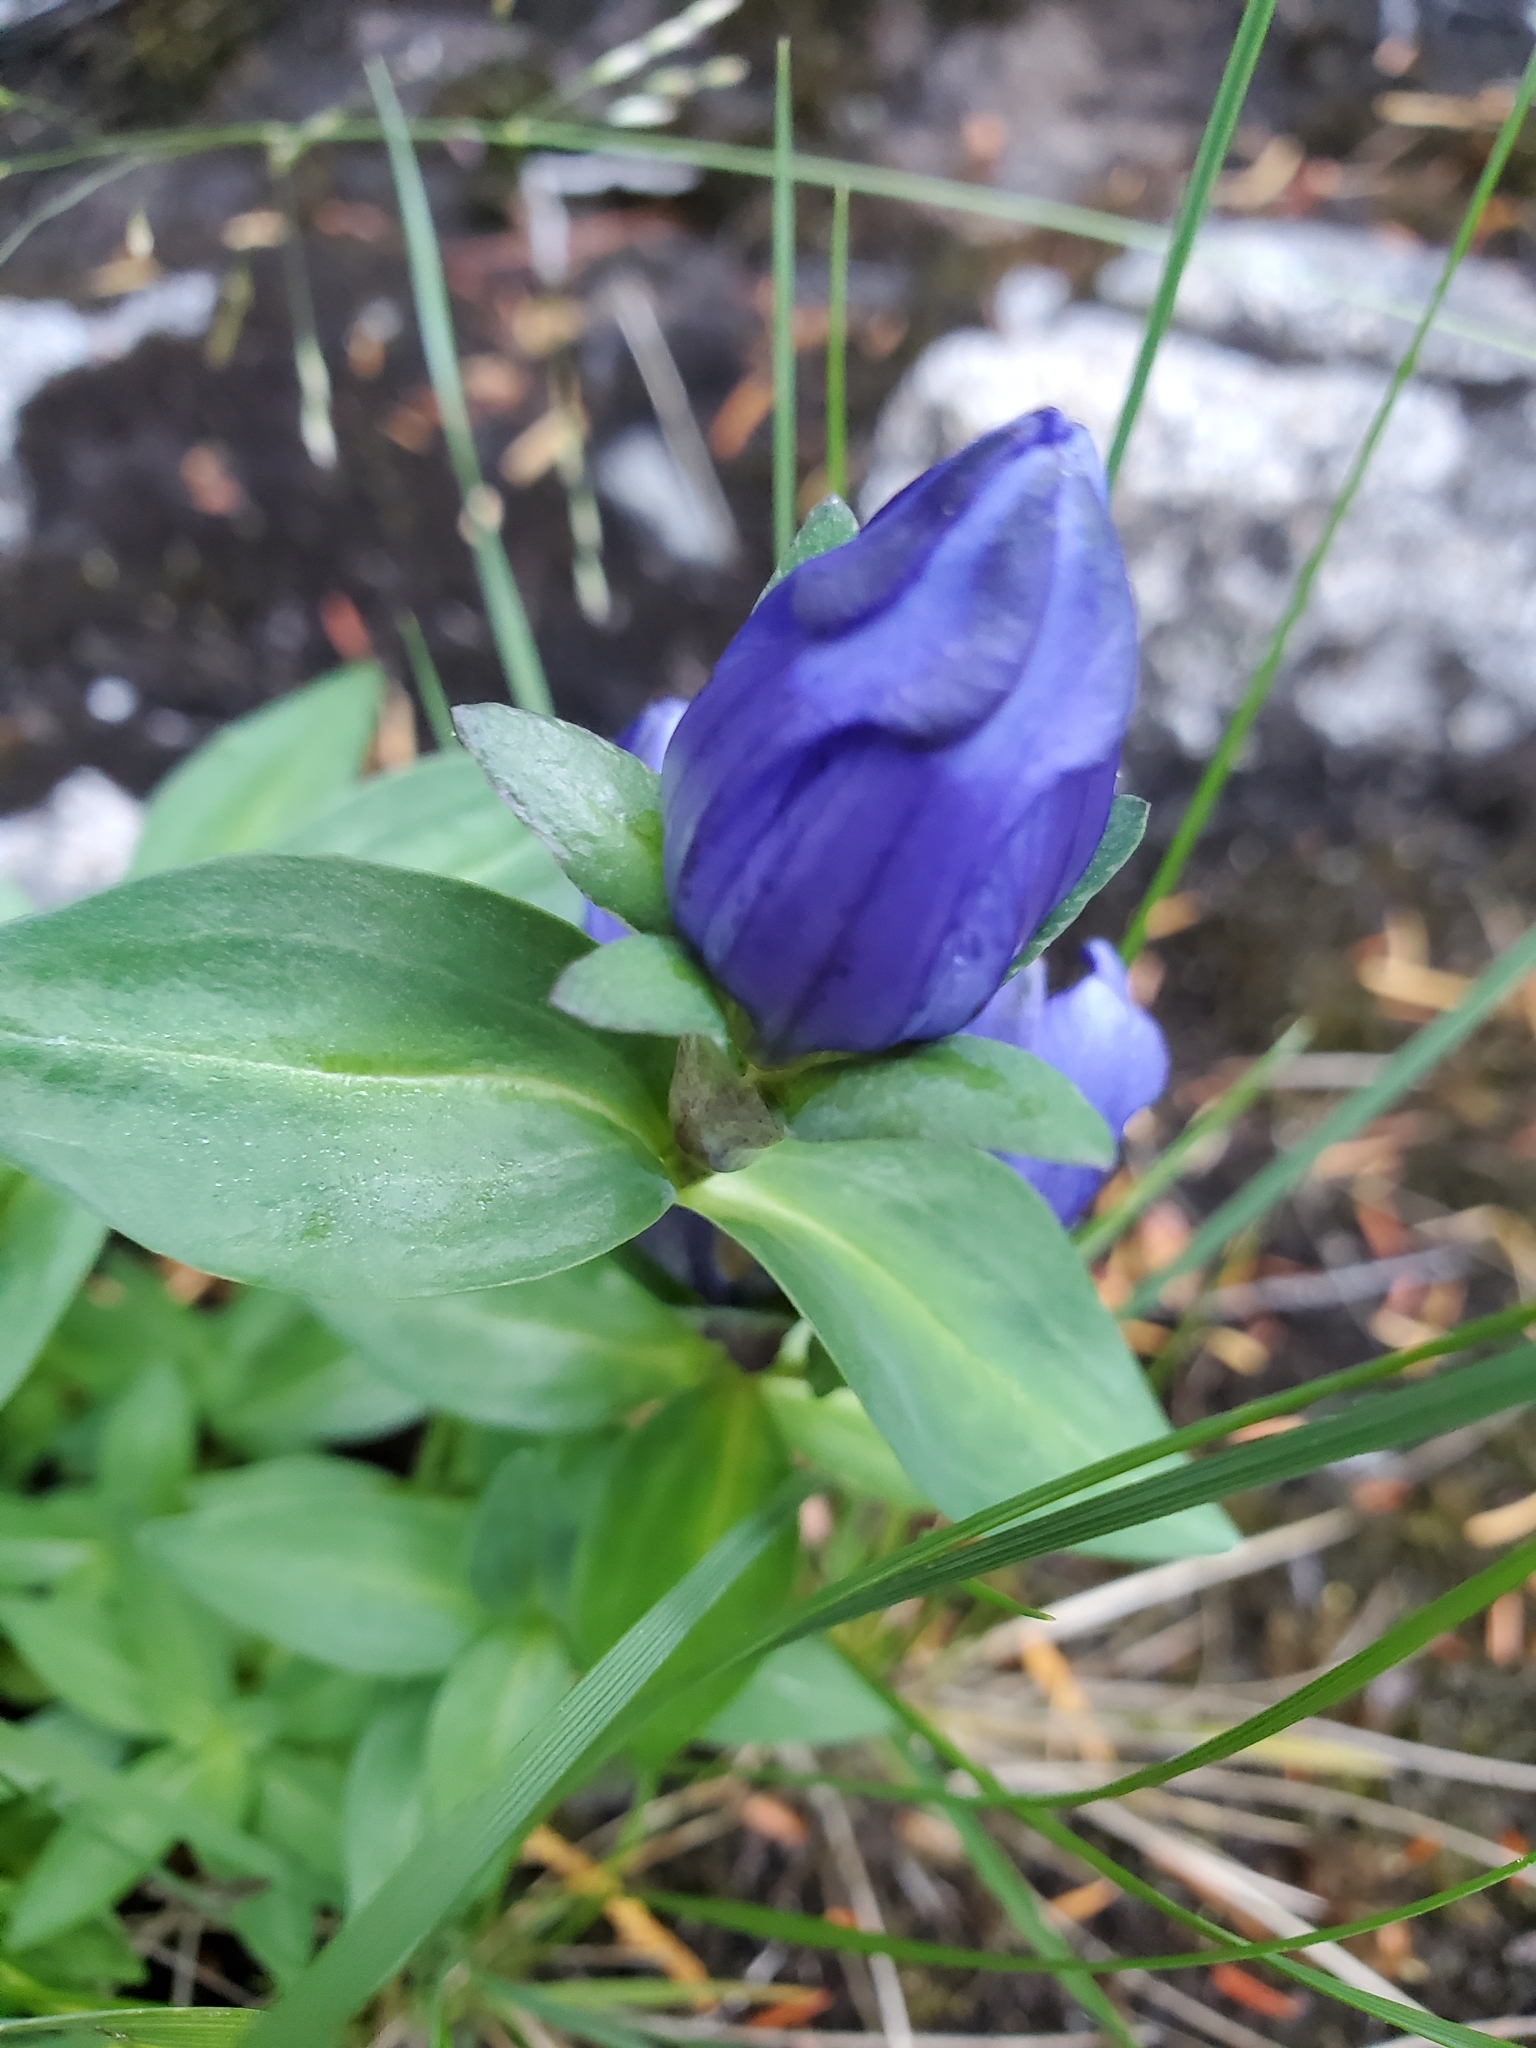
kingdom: Plantae
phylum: Tracheophyta
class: Magnoliopsida
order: Gentianales
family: Gentianaceae
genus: Gentiana
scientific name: Gentiana sceptrum
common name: Pacific gentian
